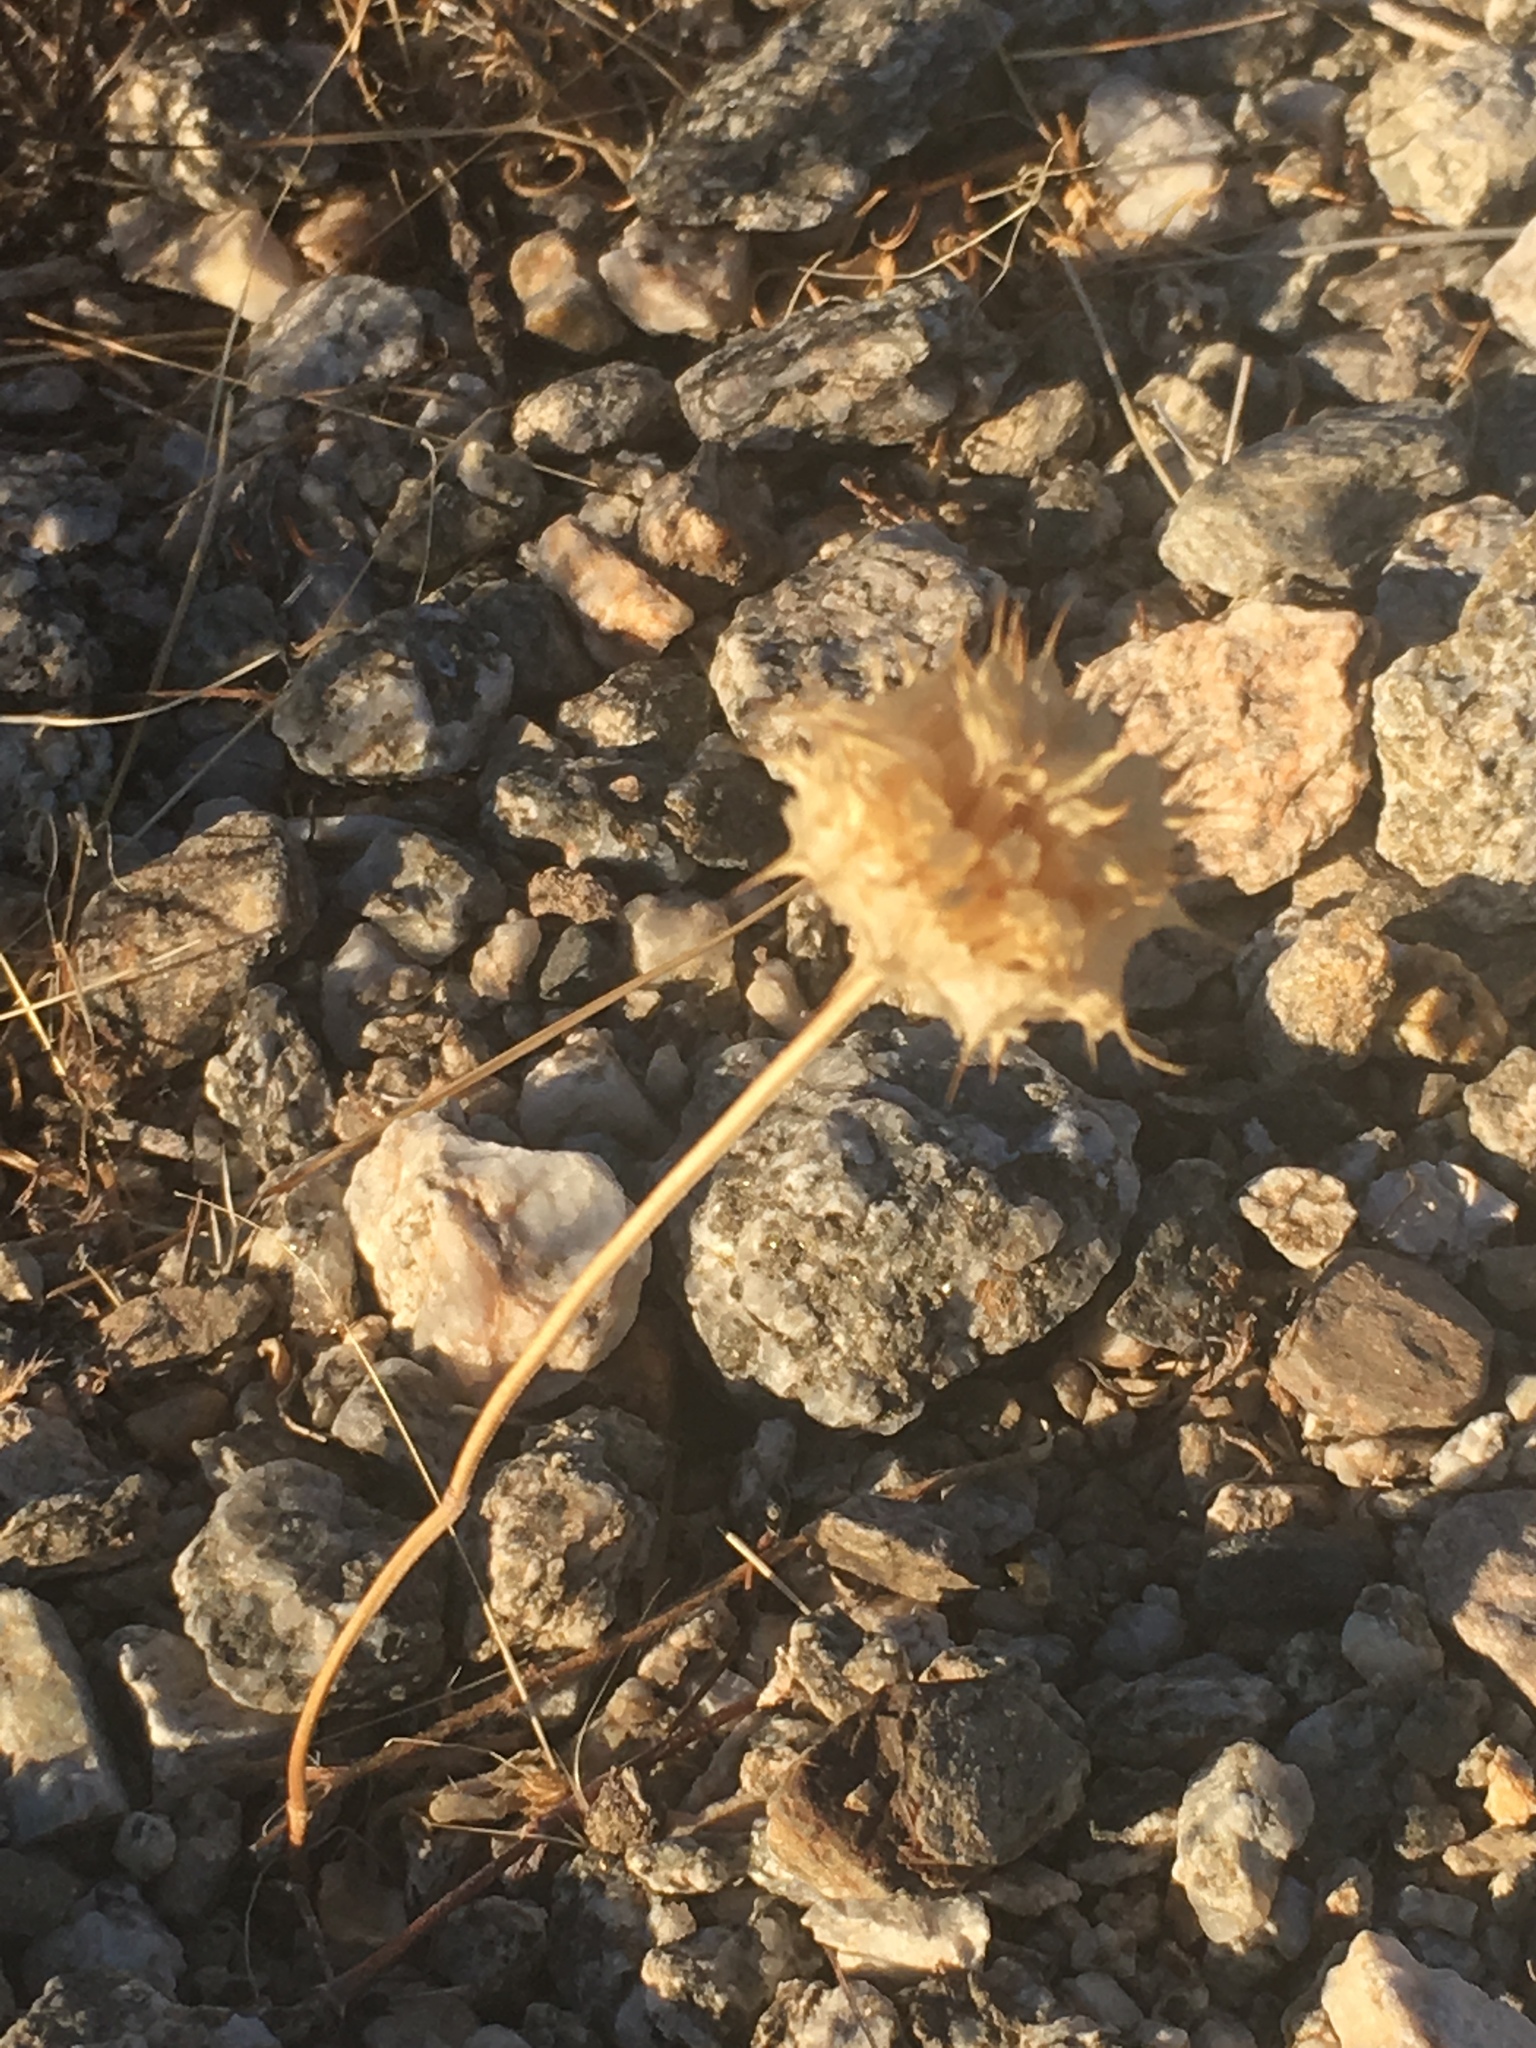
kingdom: Plantae
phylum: Tracheophyta
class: Magnoliopsida
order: Lamiales
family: Lamiaceae
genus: Salvia
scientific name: Salvia columbariae
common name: Chia
